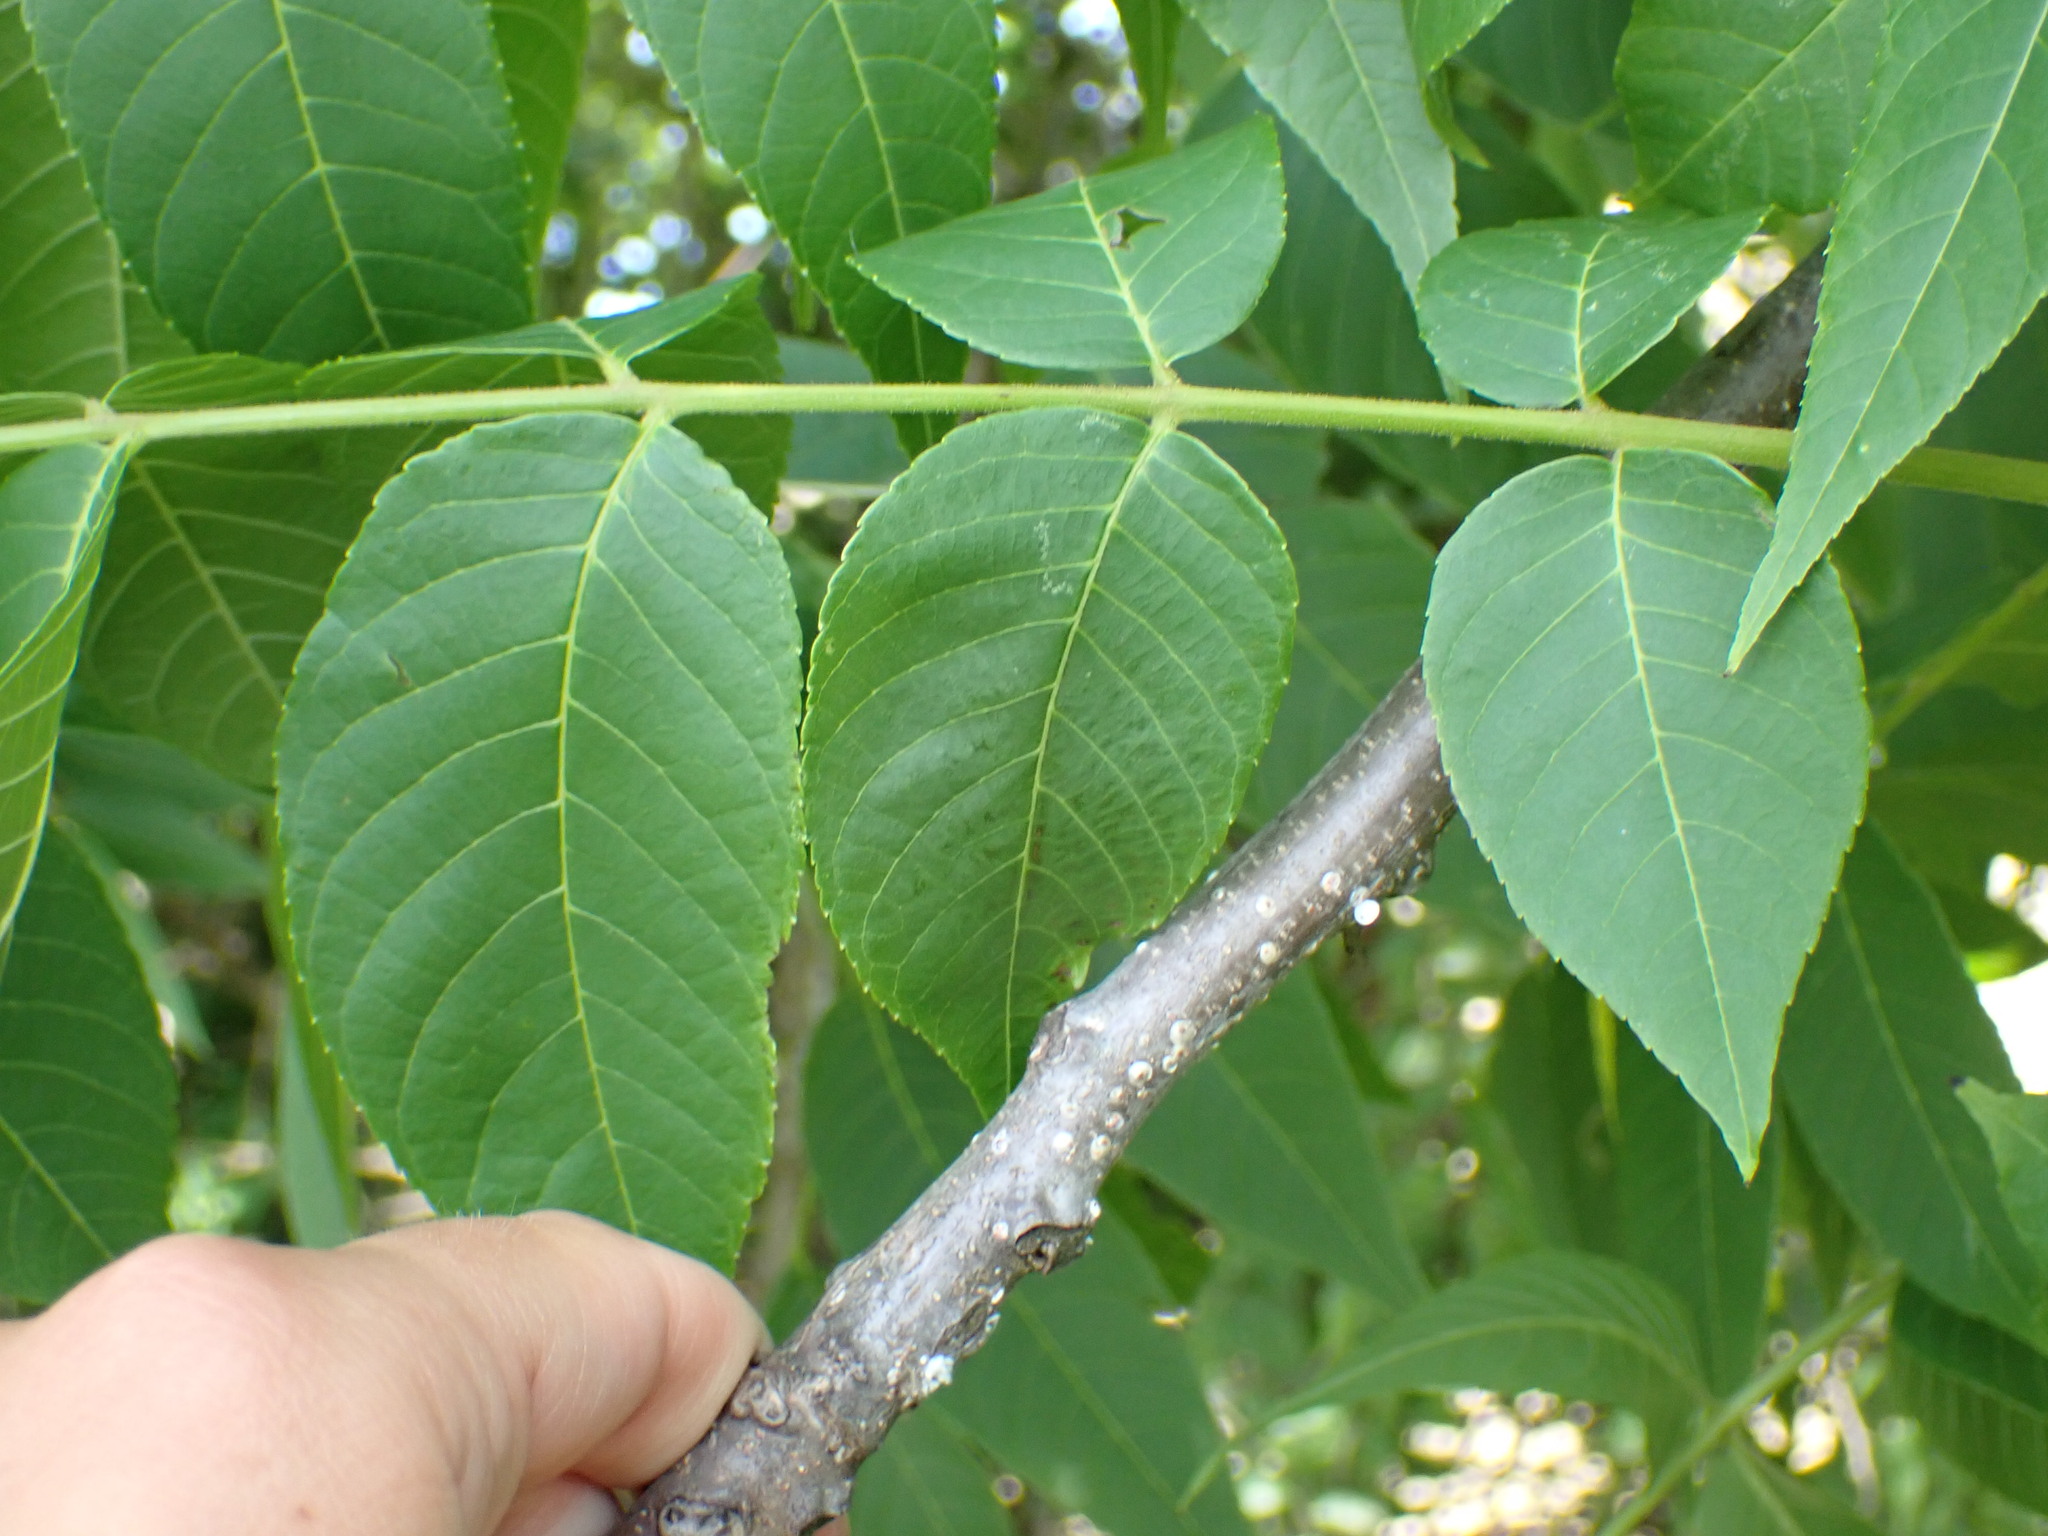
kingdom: Plantae
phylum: Tracheophyta
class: Magnoliopsida
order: Fagales
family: Juglandaceae
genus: Juglans
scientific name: Juglans nigra
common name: Black walnut
